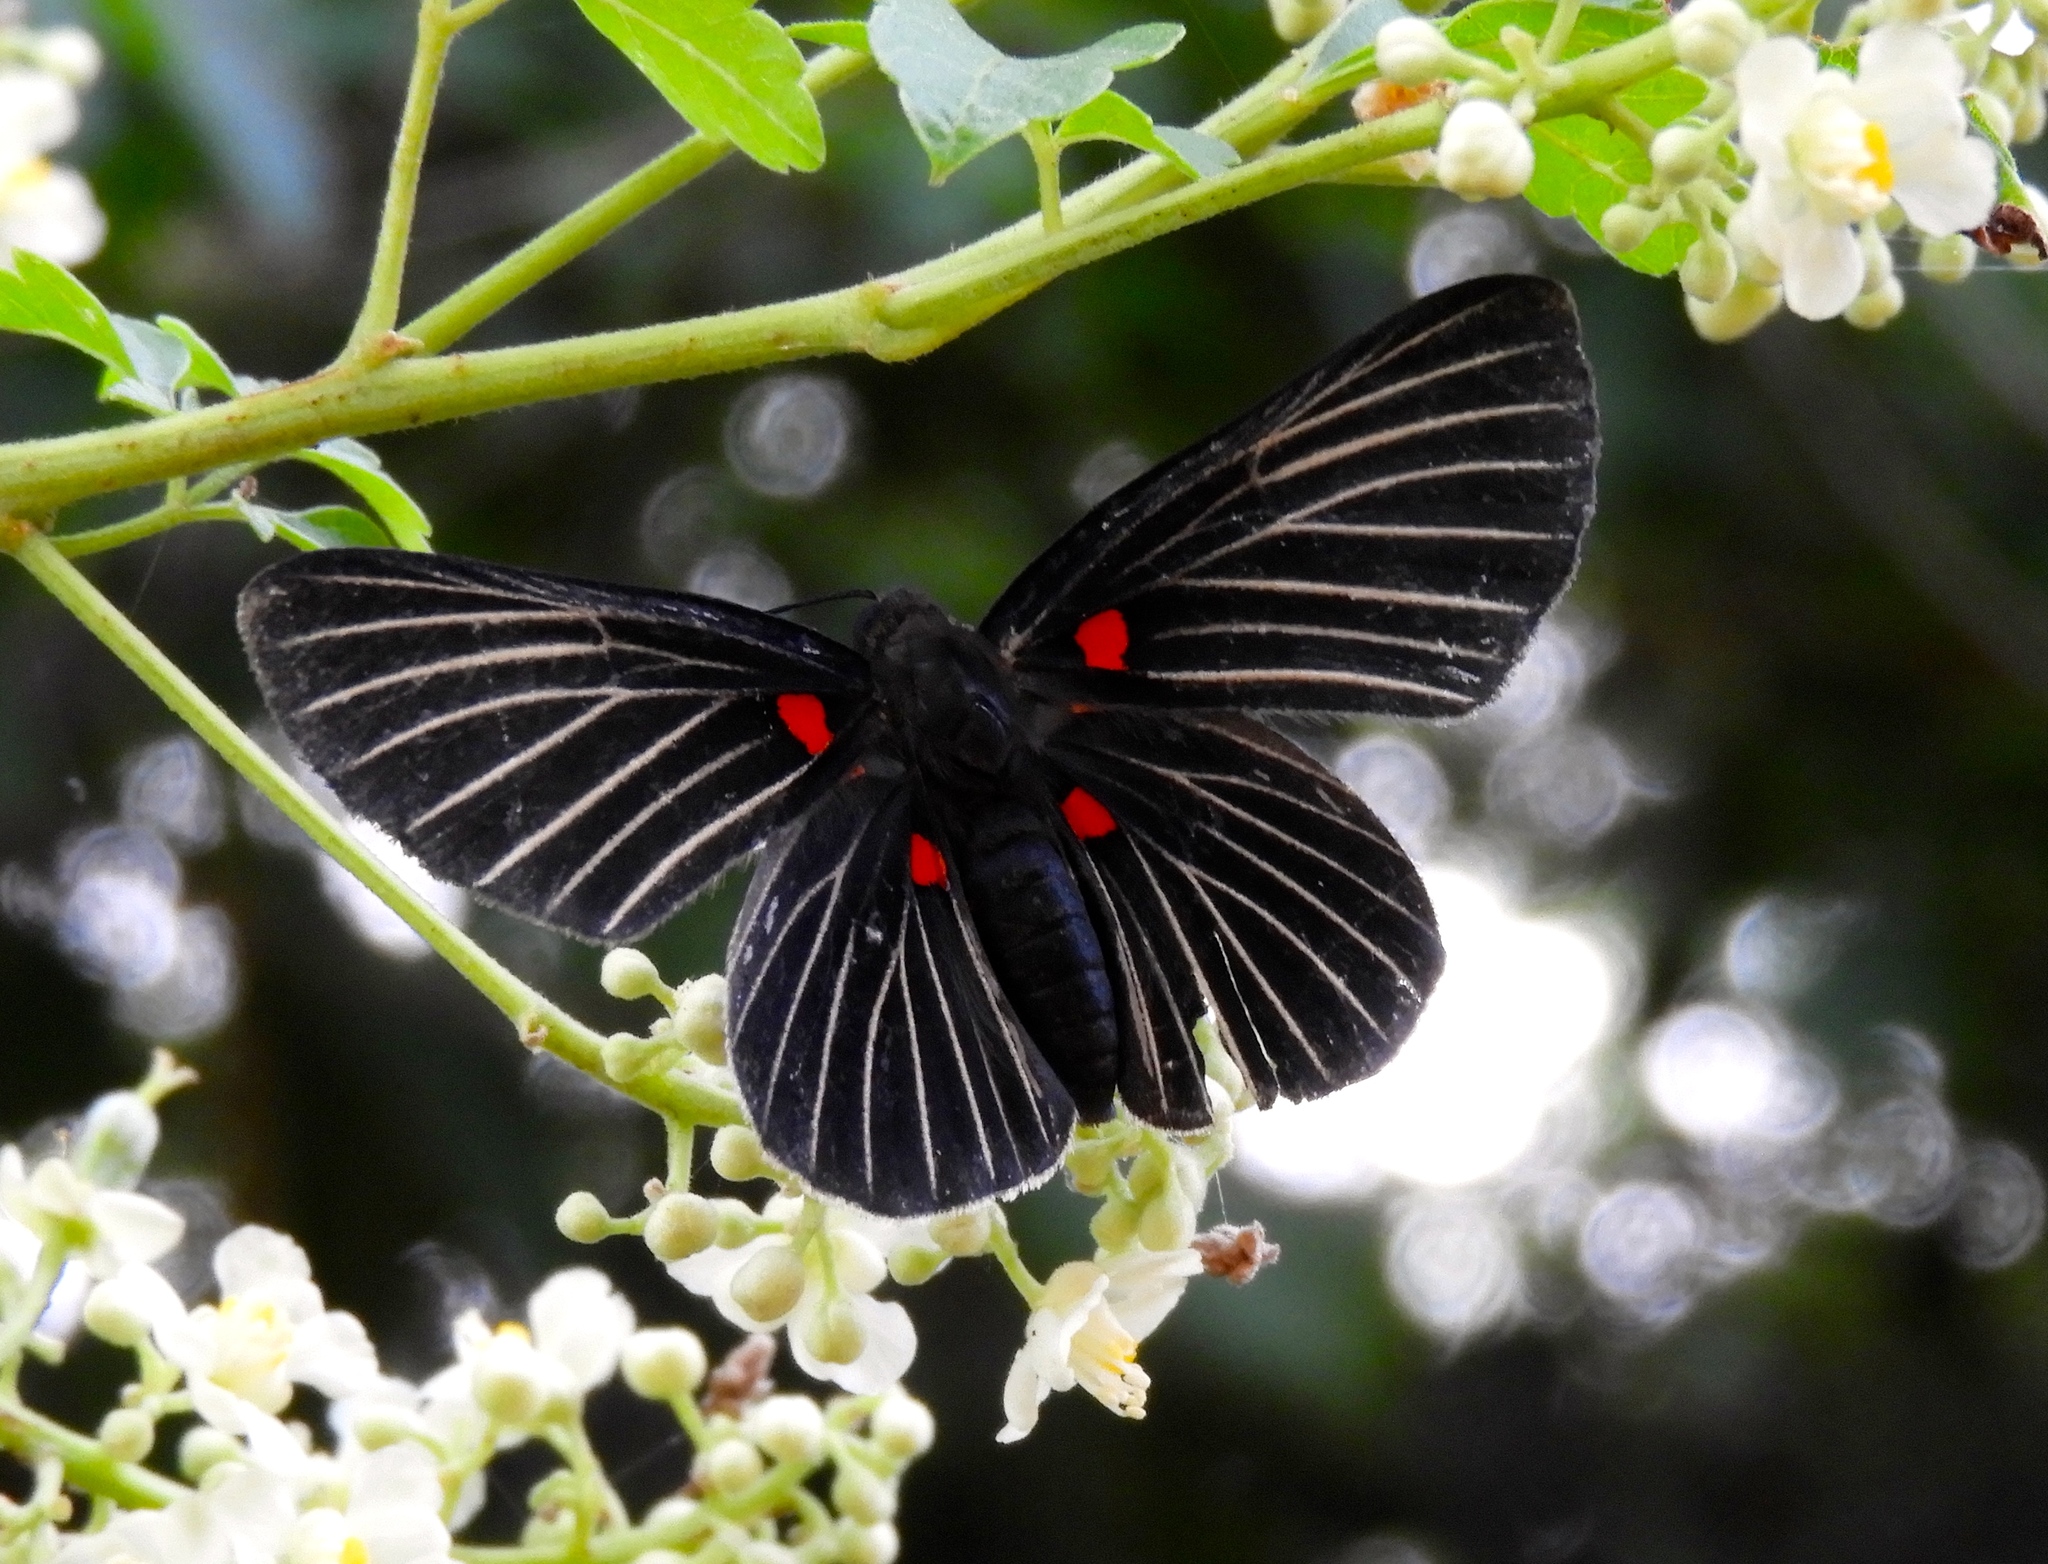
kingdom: Animalia
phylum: Arthropoda
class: Insecta
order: Lepidoptera
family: Lycaenidae
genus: Melanis
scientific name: Melanis
